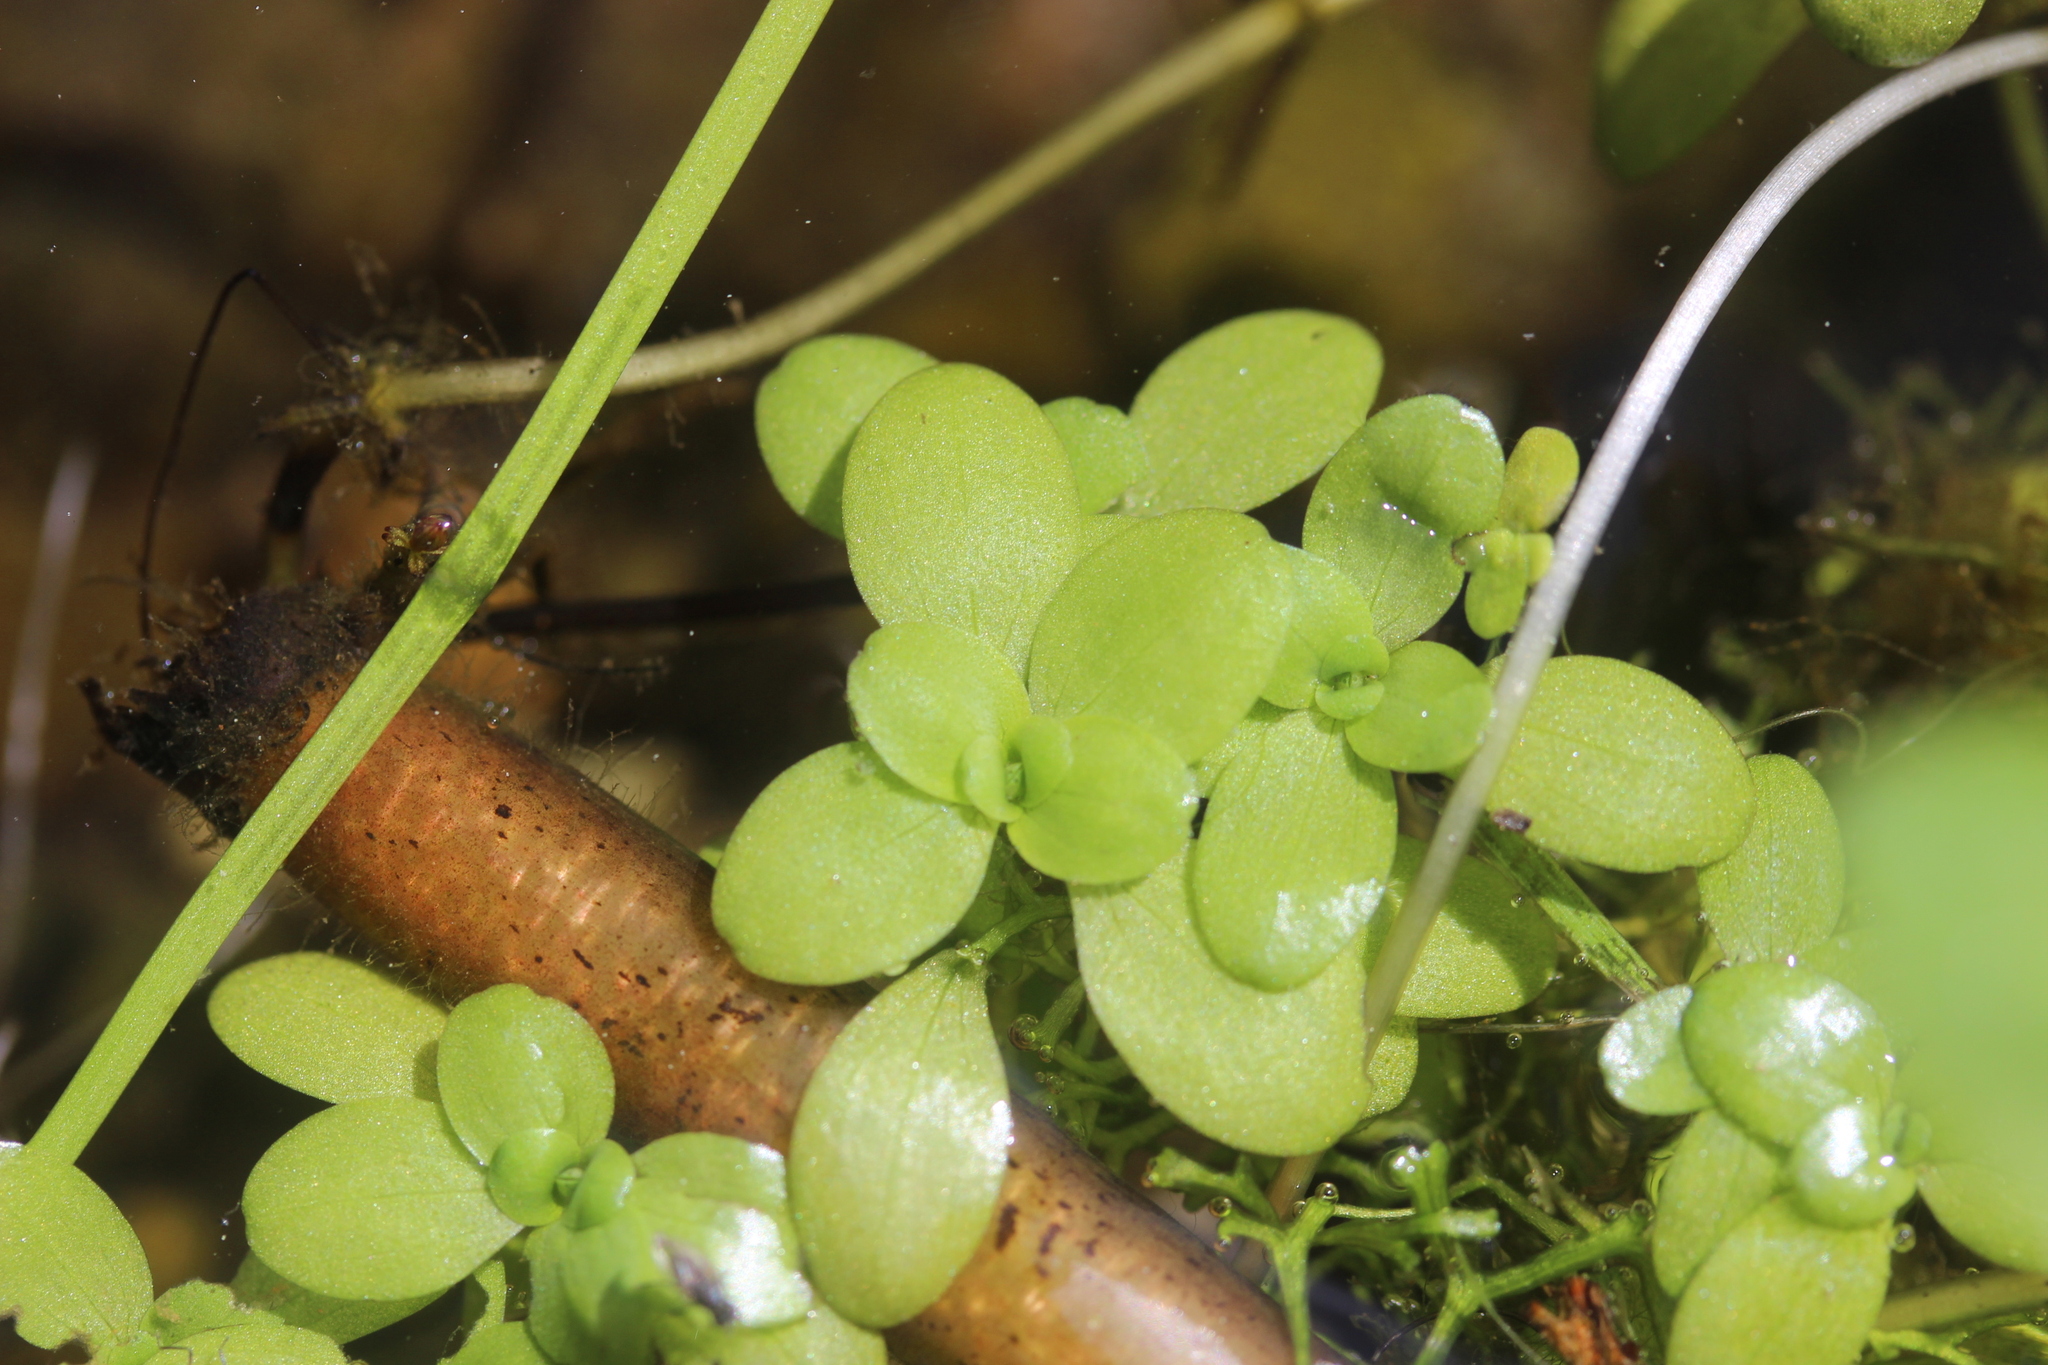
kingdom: Plantae
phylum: Tracheophyta
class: Magnoliopsida
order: Lamiales
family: Plantaginaceae
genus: Callitriche
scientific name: Callitriche stagnalis
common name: Common water-starwort
